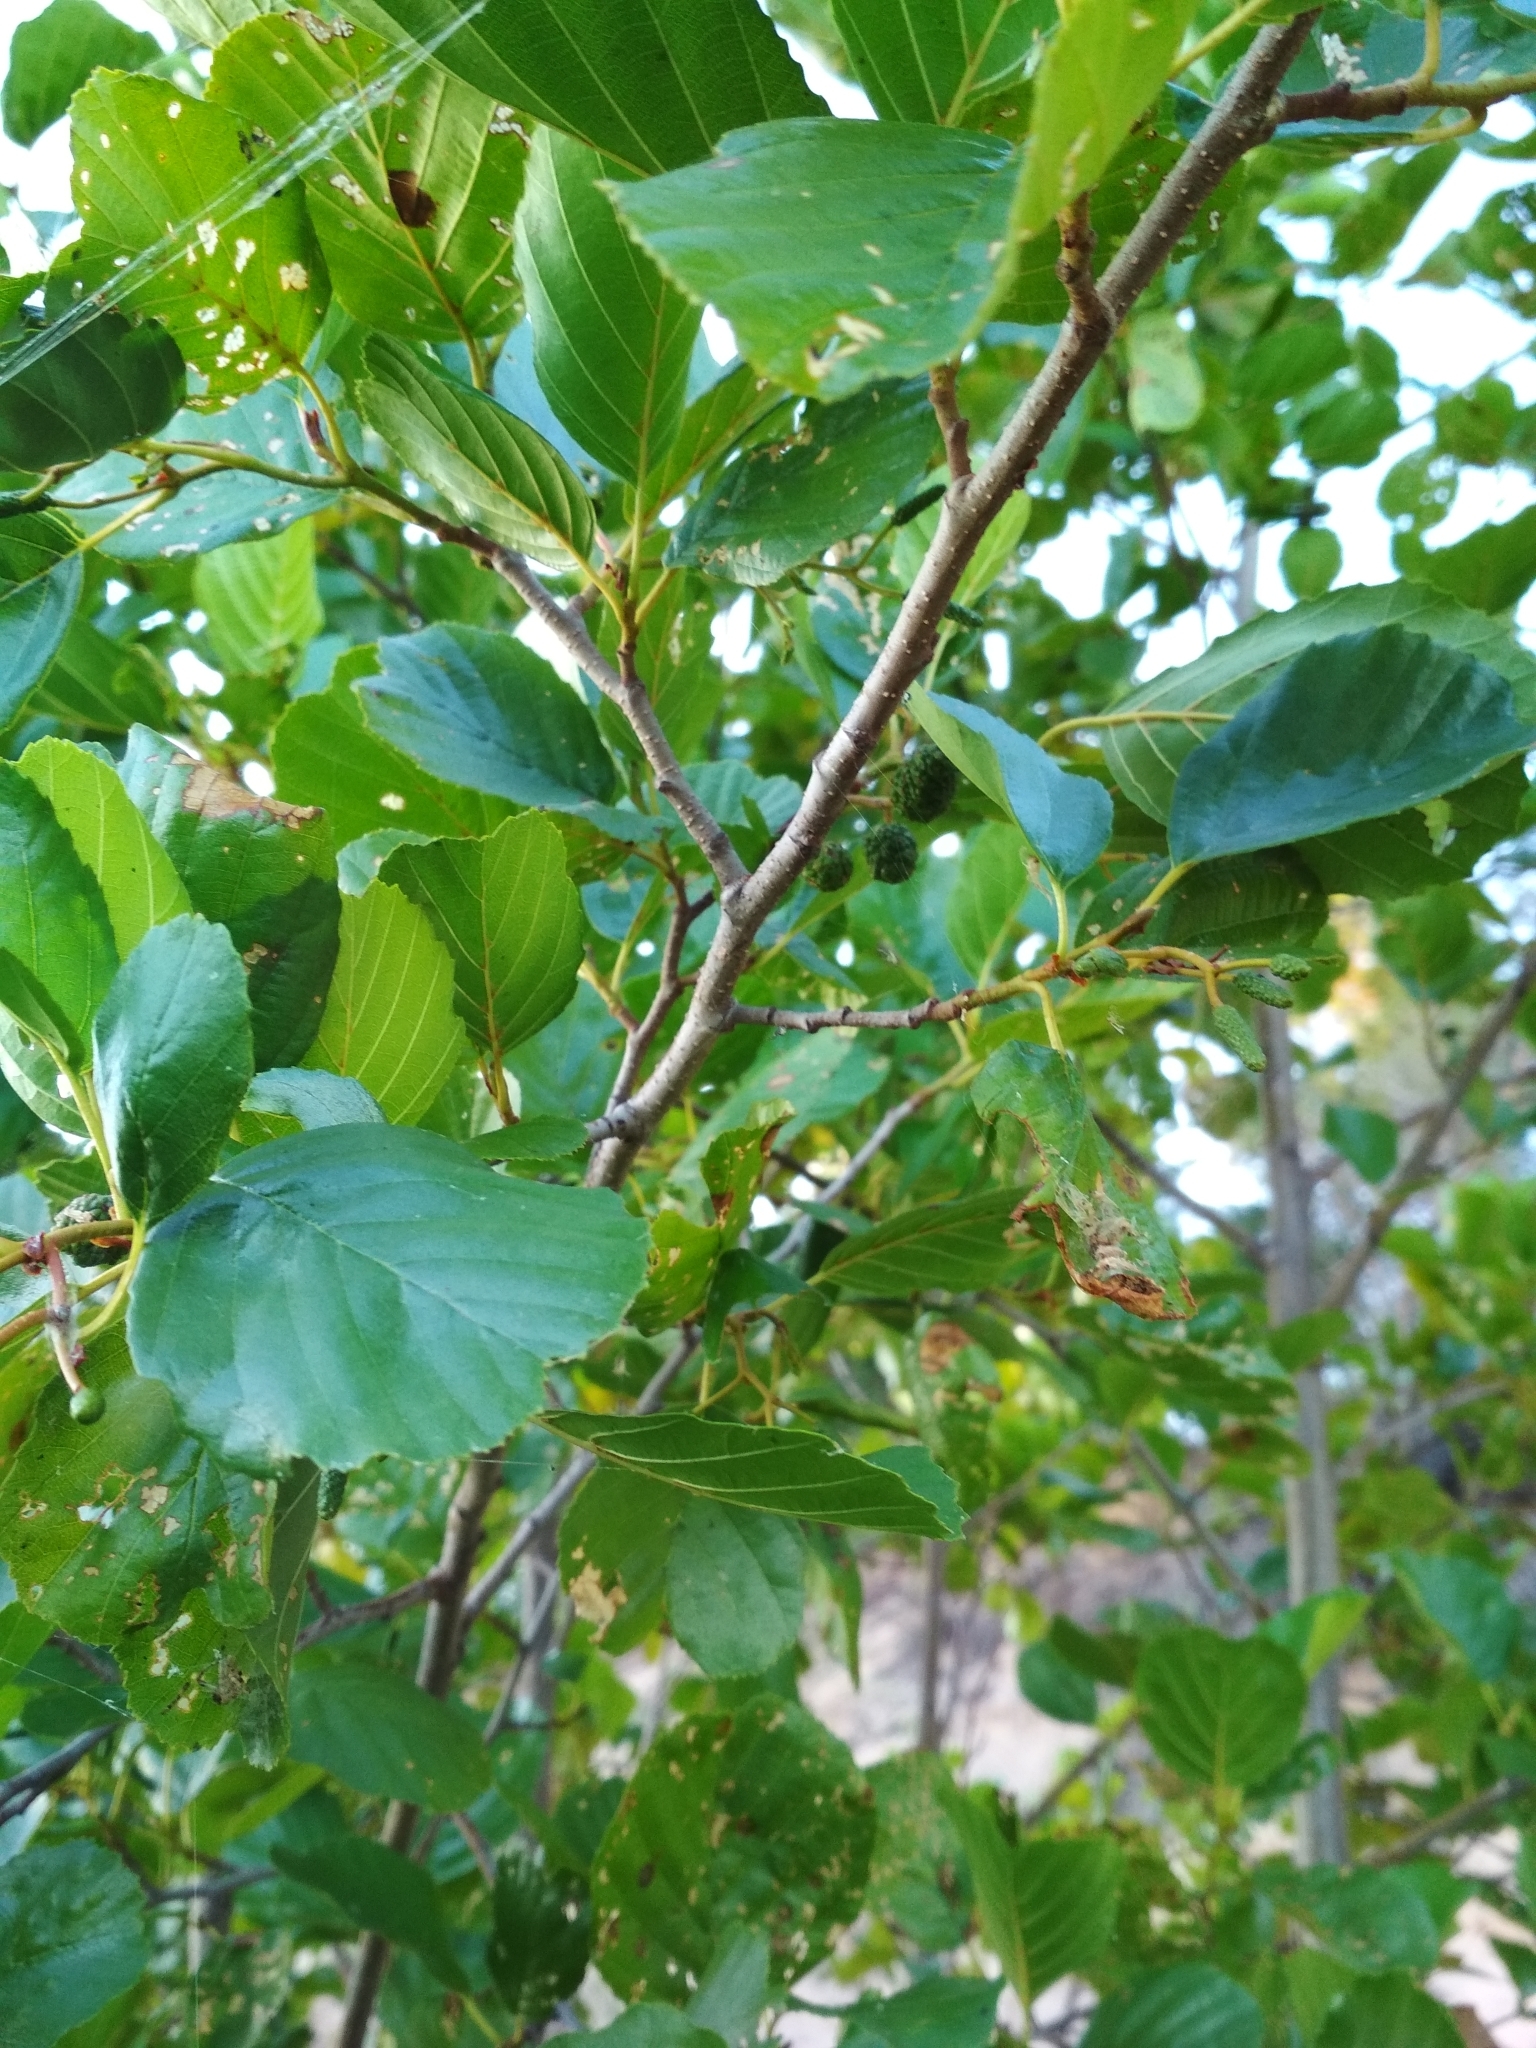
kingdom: Plantae
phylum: Tracheophyta
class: Magnoliopsida
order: Fagales
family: Betulaceae
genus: Alnus
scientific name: Alnus glutinosa
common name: Black alder
